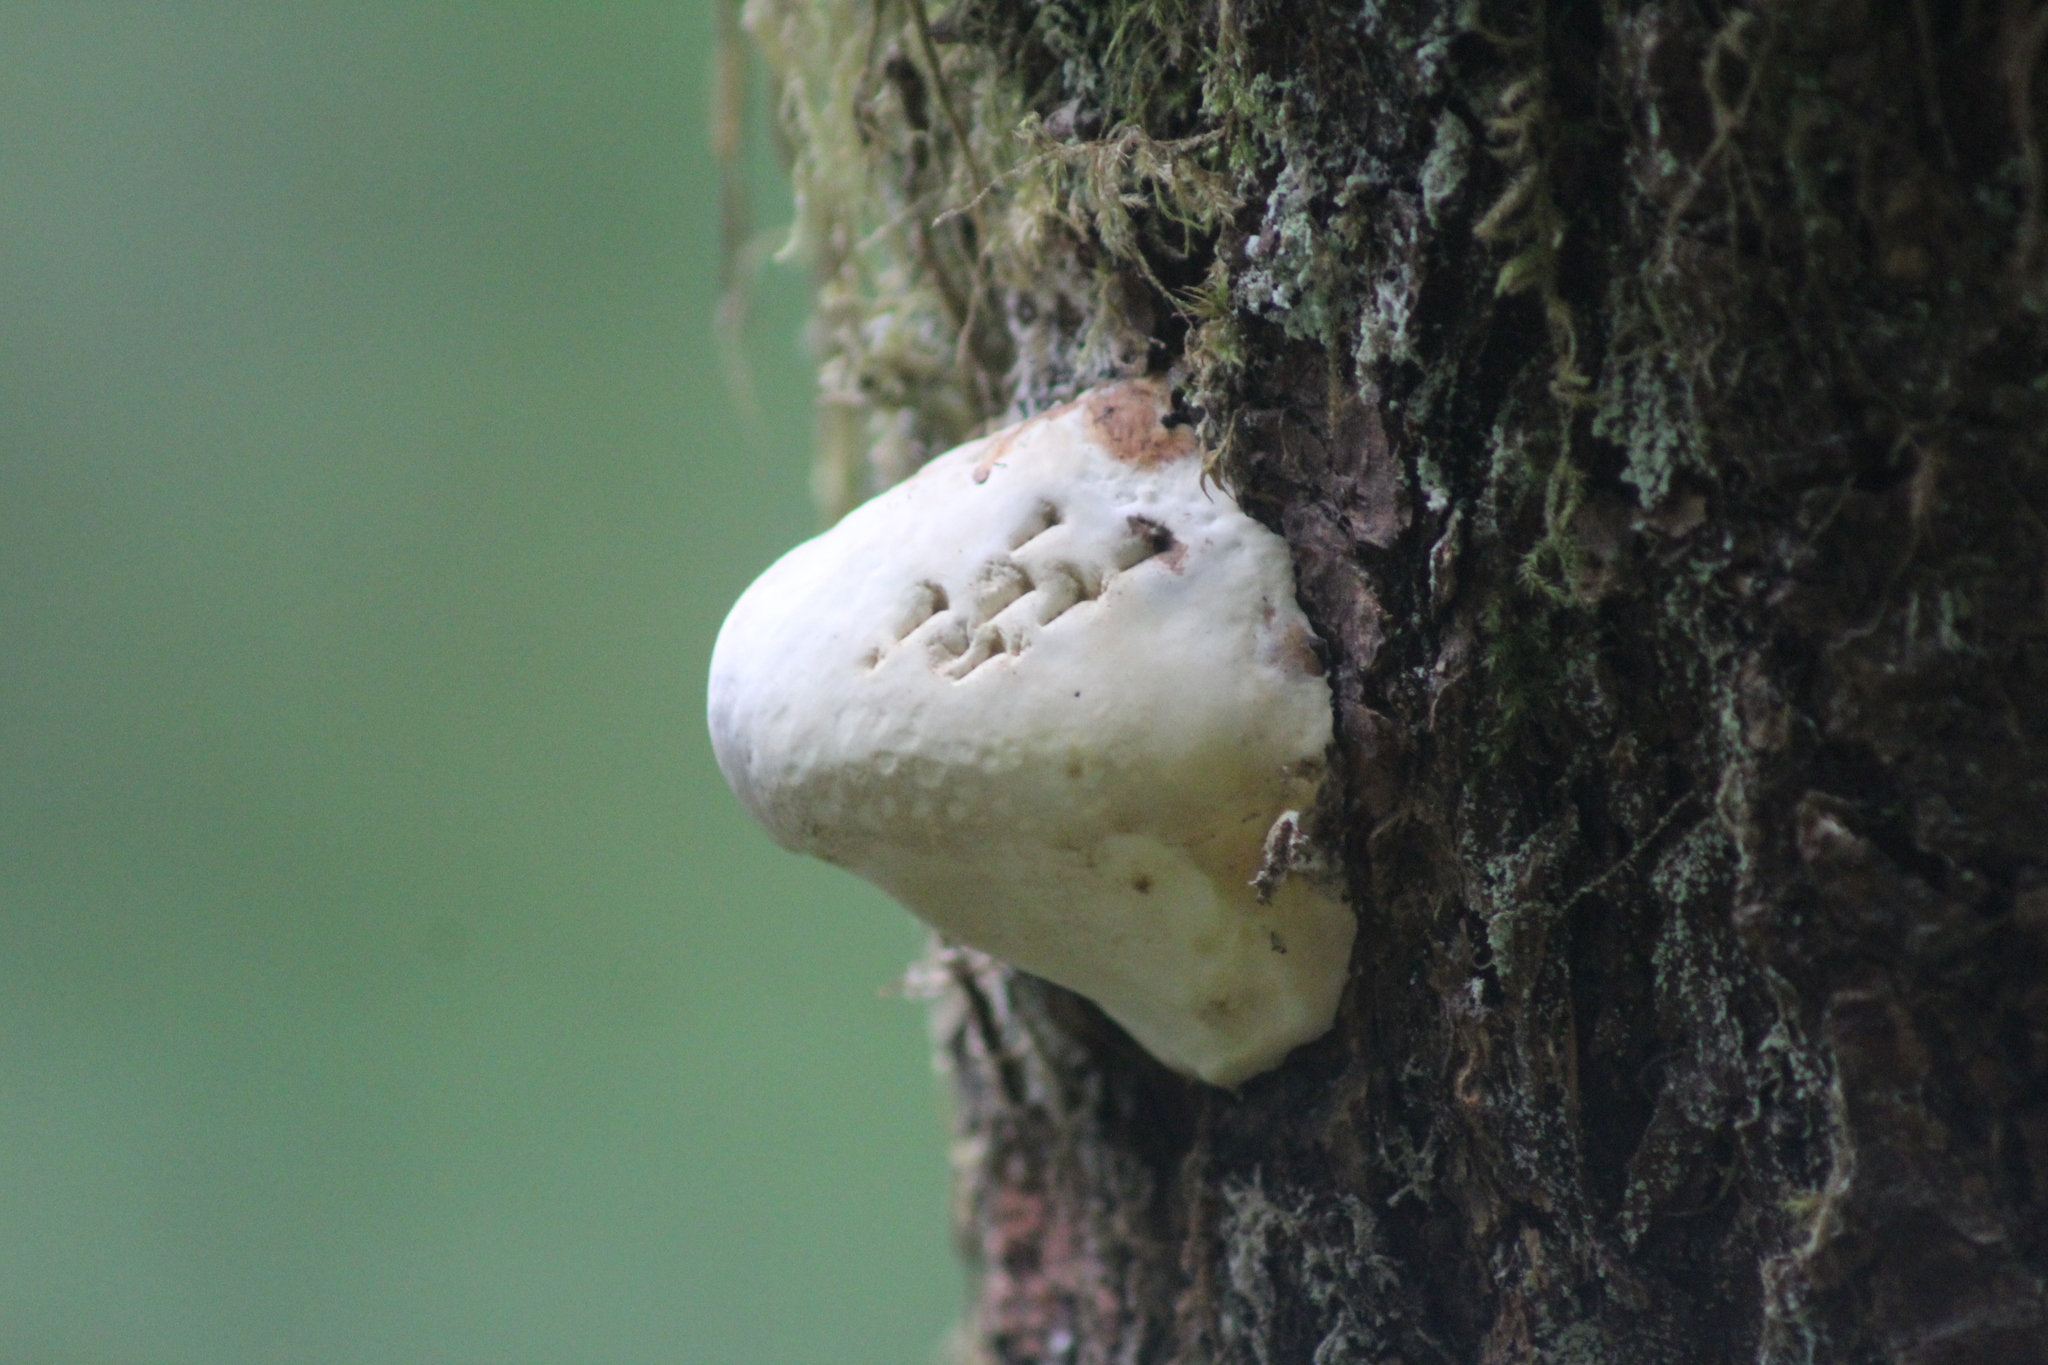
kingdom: Fungi
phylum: Basidiomycota
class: Agaricomycetes
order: Polyporales
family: Fomitopsidaceae
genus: Fomitopsis
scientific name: Fomitopsis mounceae
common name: Northern red belt
